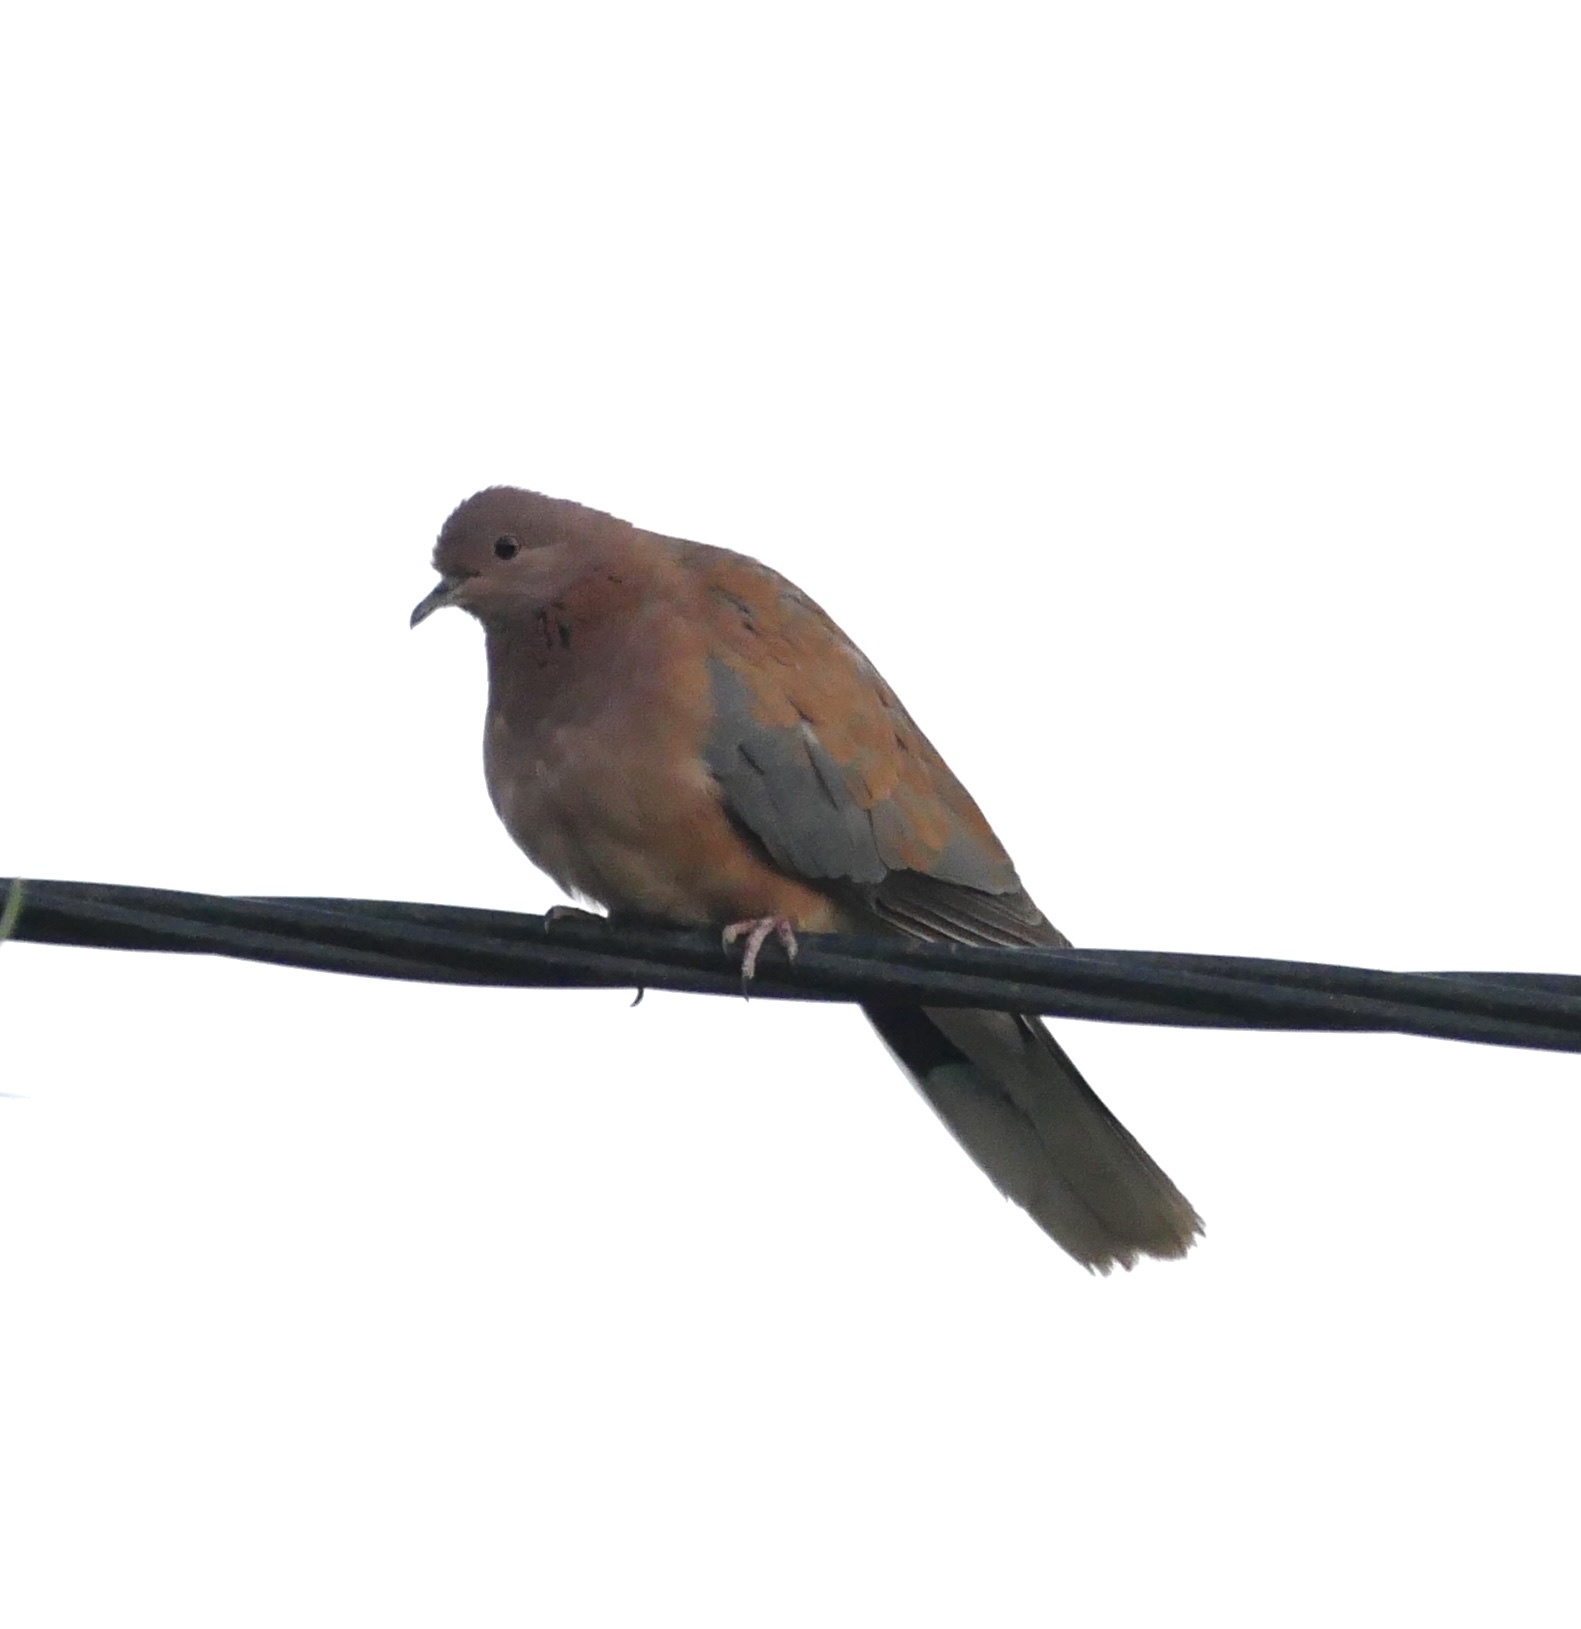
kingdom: Animalia
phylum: Chordata
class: Aves
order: Columbiformes
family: Columbidae
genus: Spilopelia
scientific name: Spilopelia senegalensis
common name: Laughing dove
